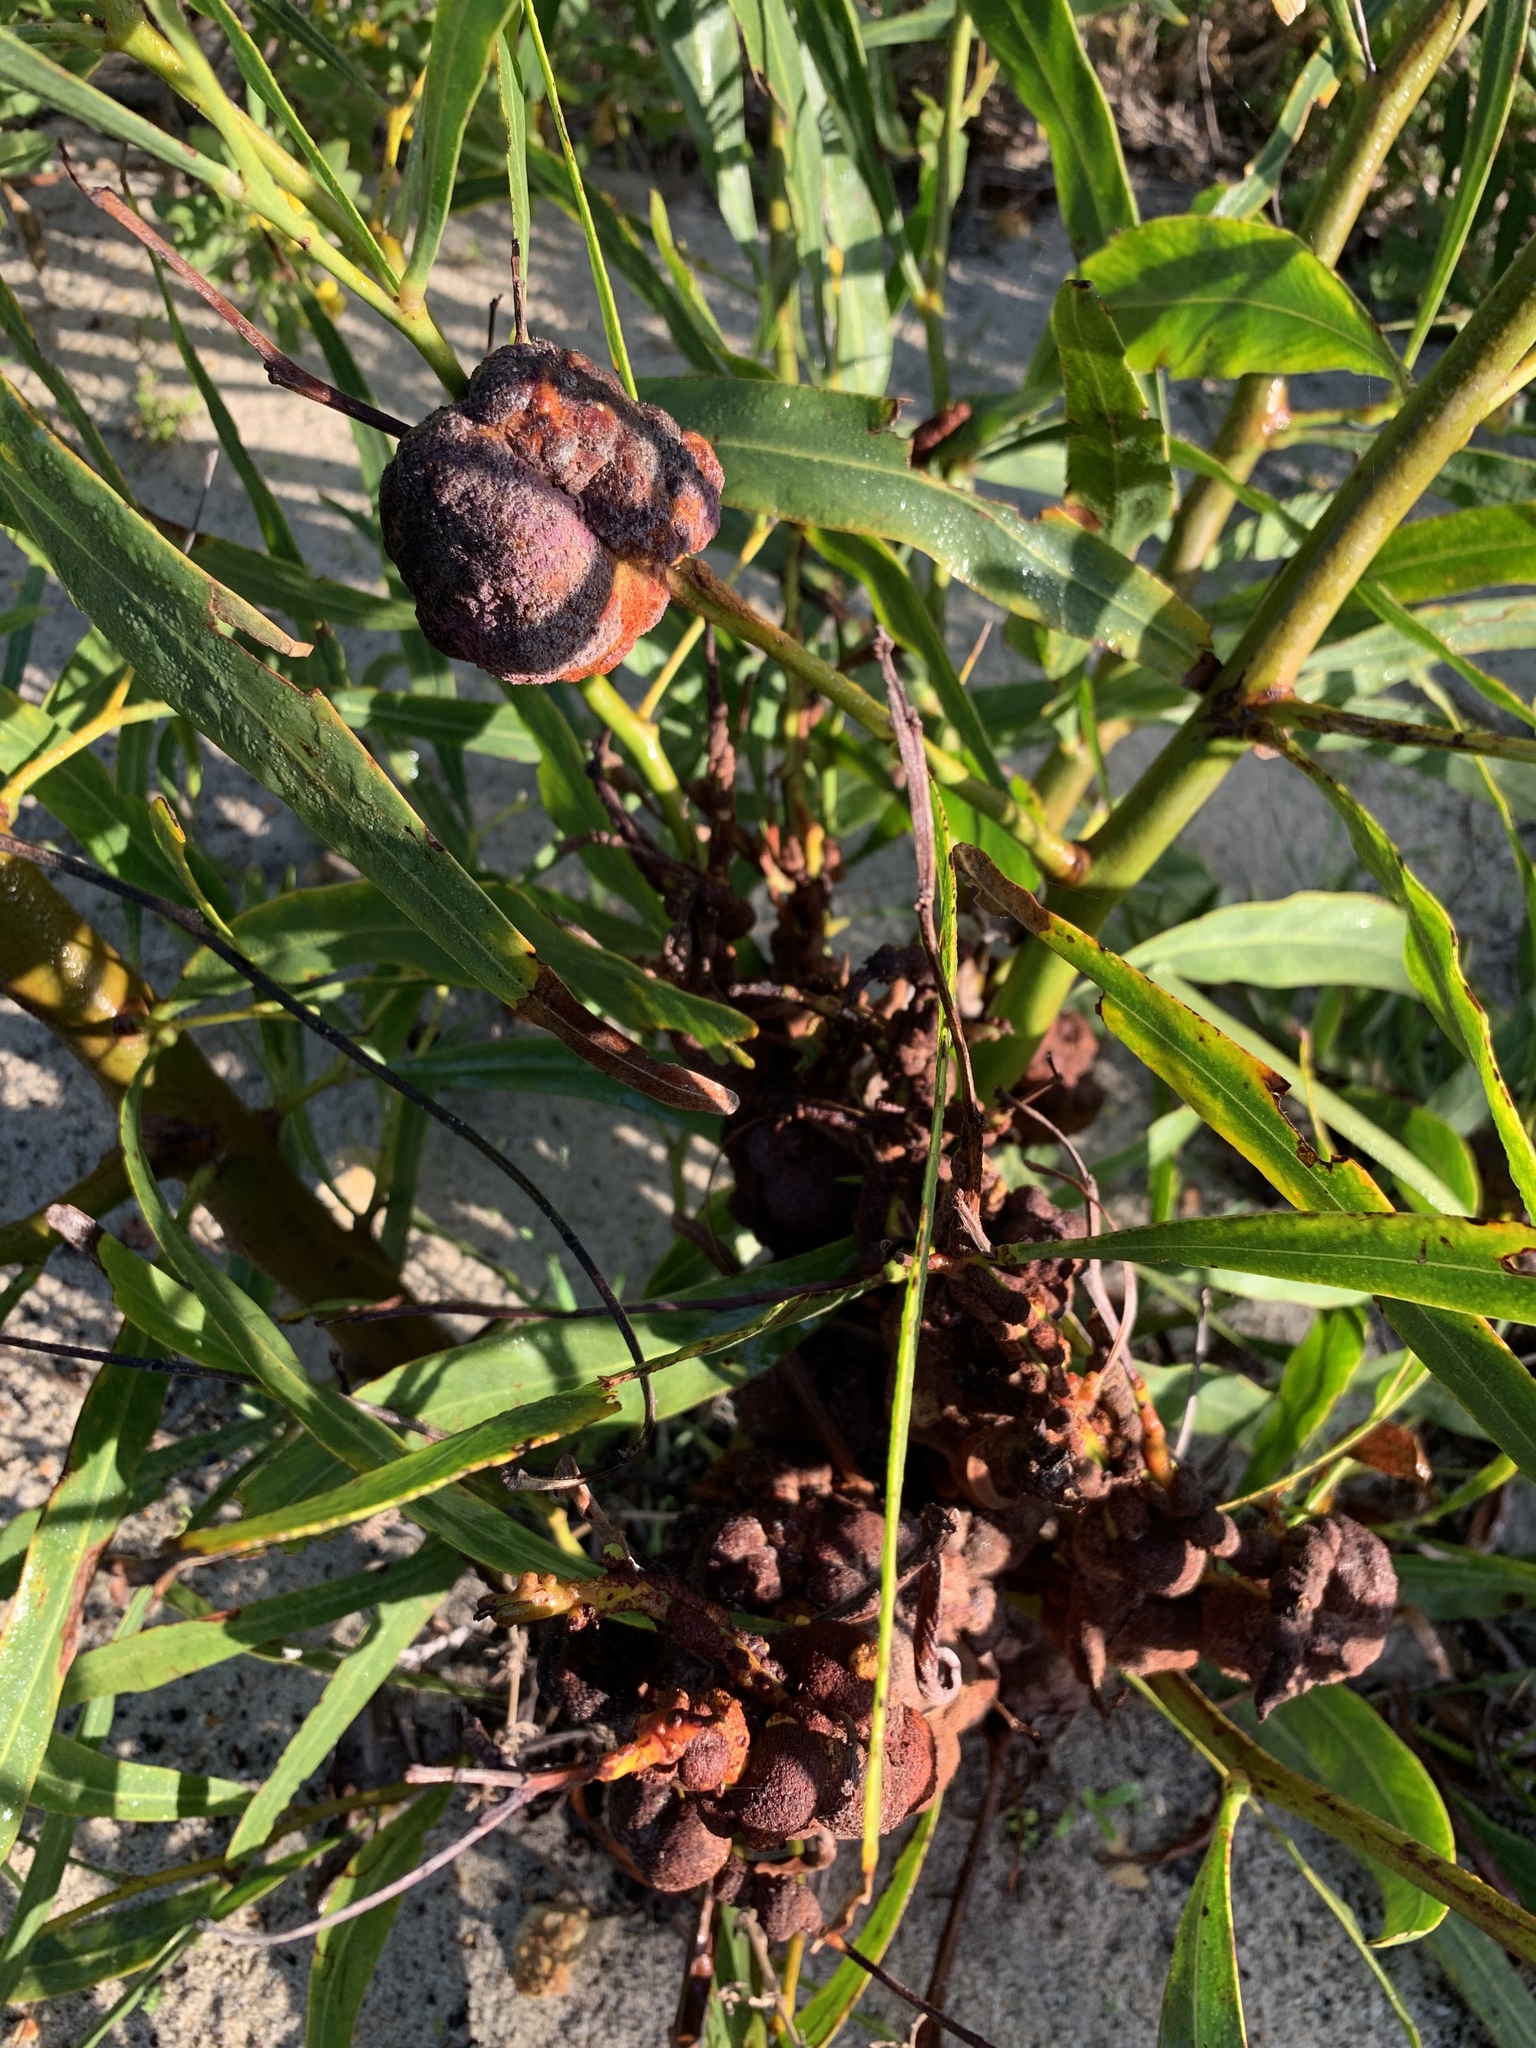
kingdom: Plantae
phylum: Tracheophyta
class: Magnoliopsida
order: Fabales
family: Fabaceae
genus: Acacia
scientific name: Acacia saligna
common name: Orange wattle
